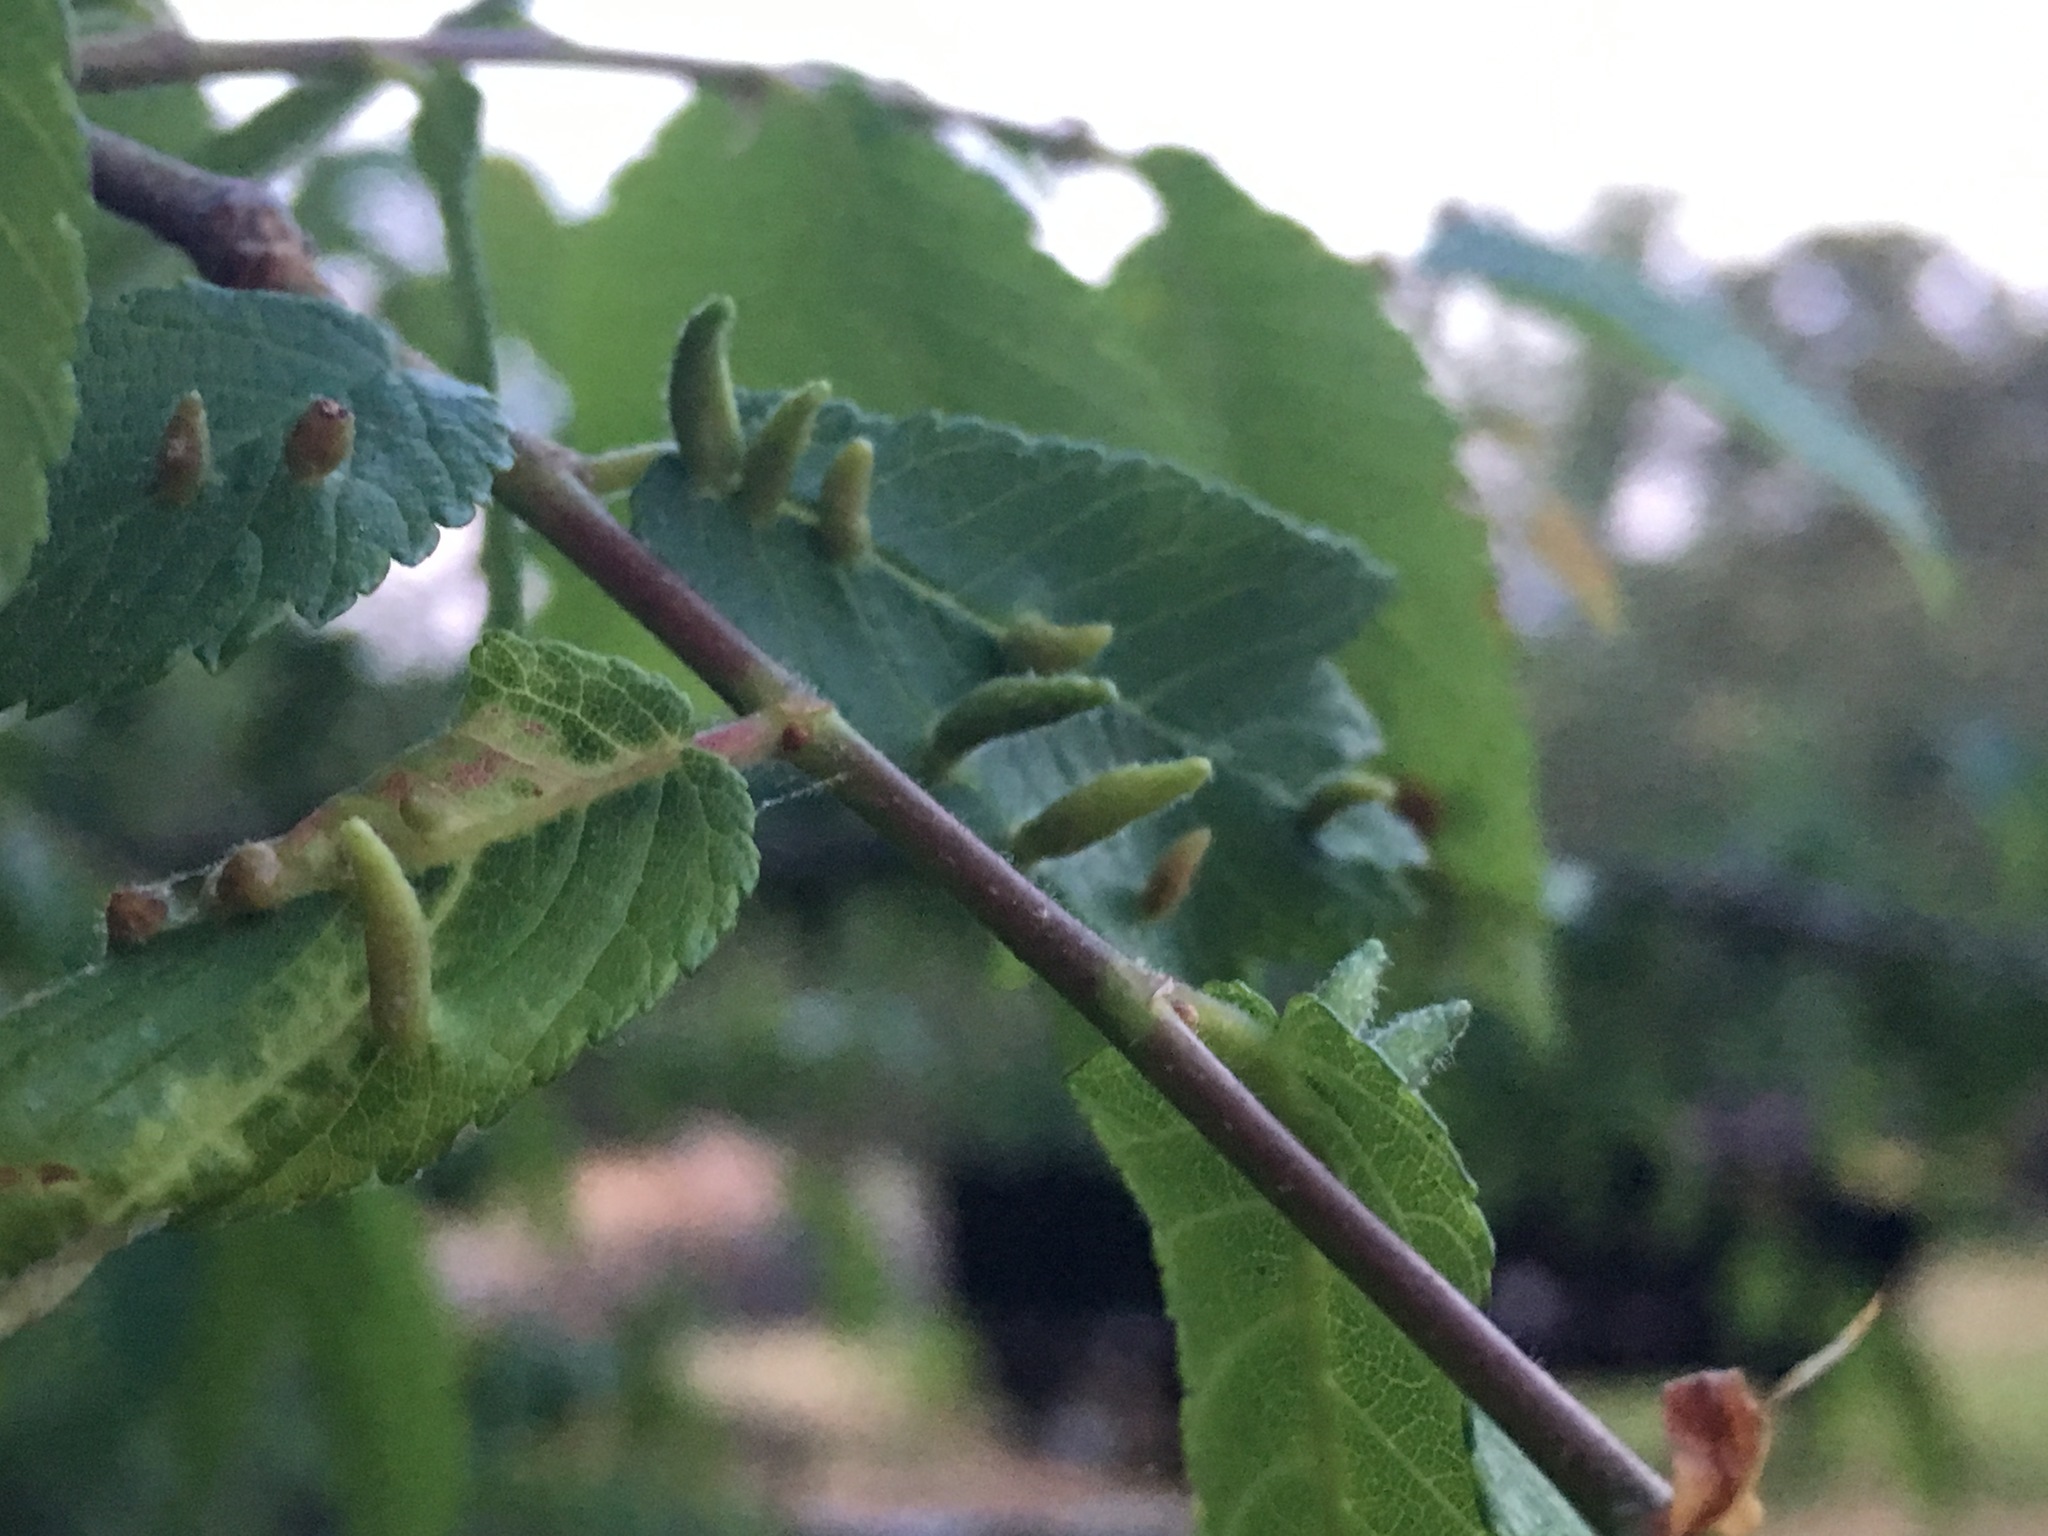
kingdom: Animalia
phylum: Arthropoda
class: Arachnida
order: Trombidiformes
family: Eriophyidae
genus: Aceria
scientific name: Aceria
